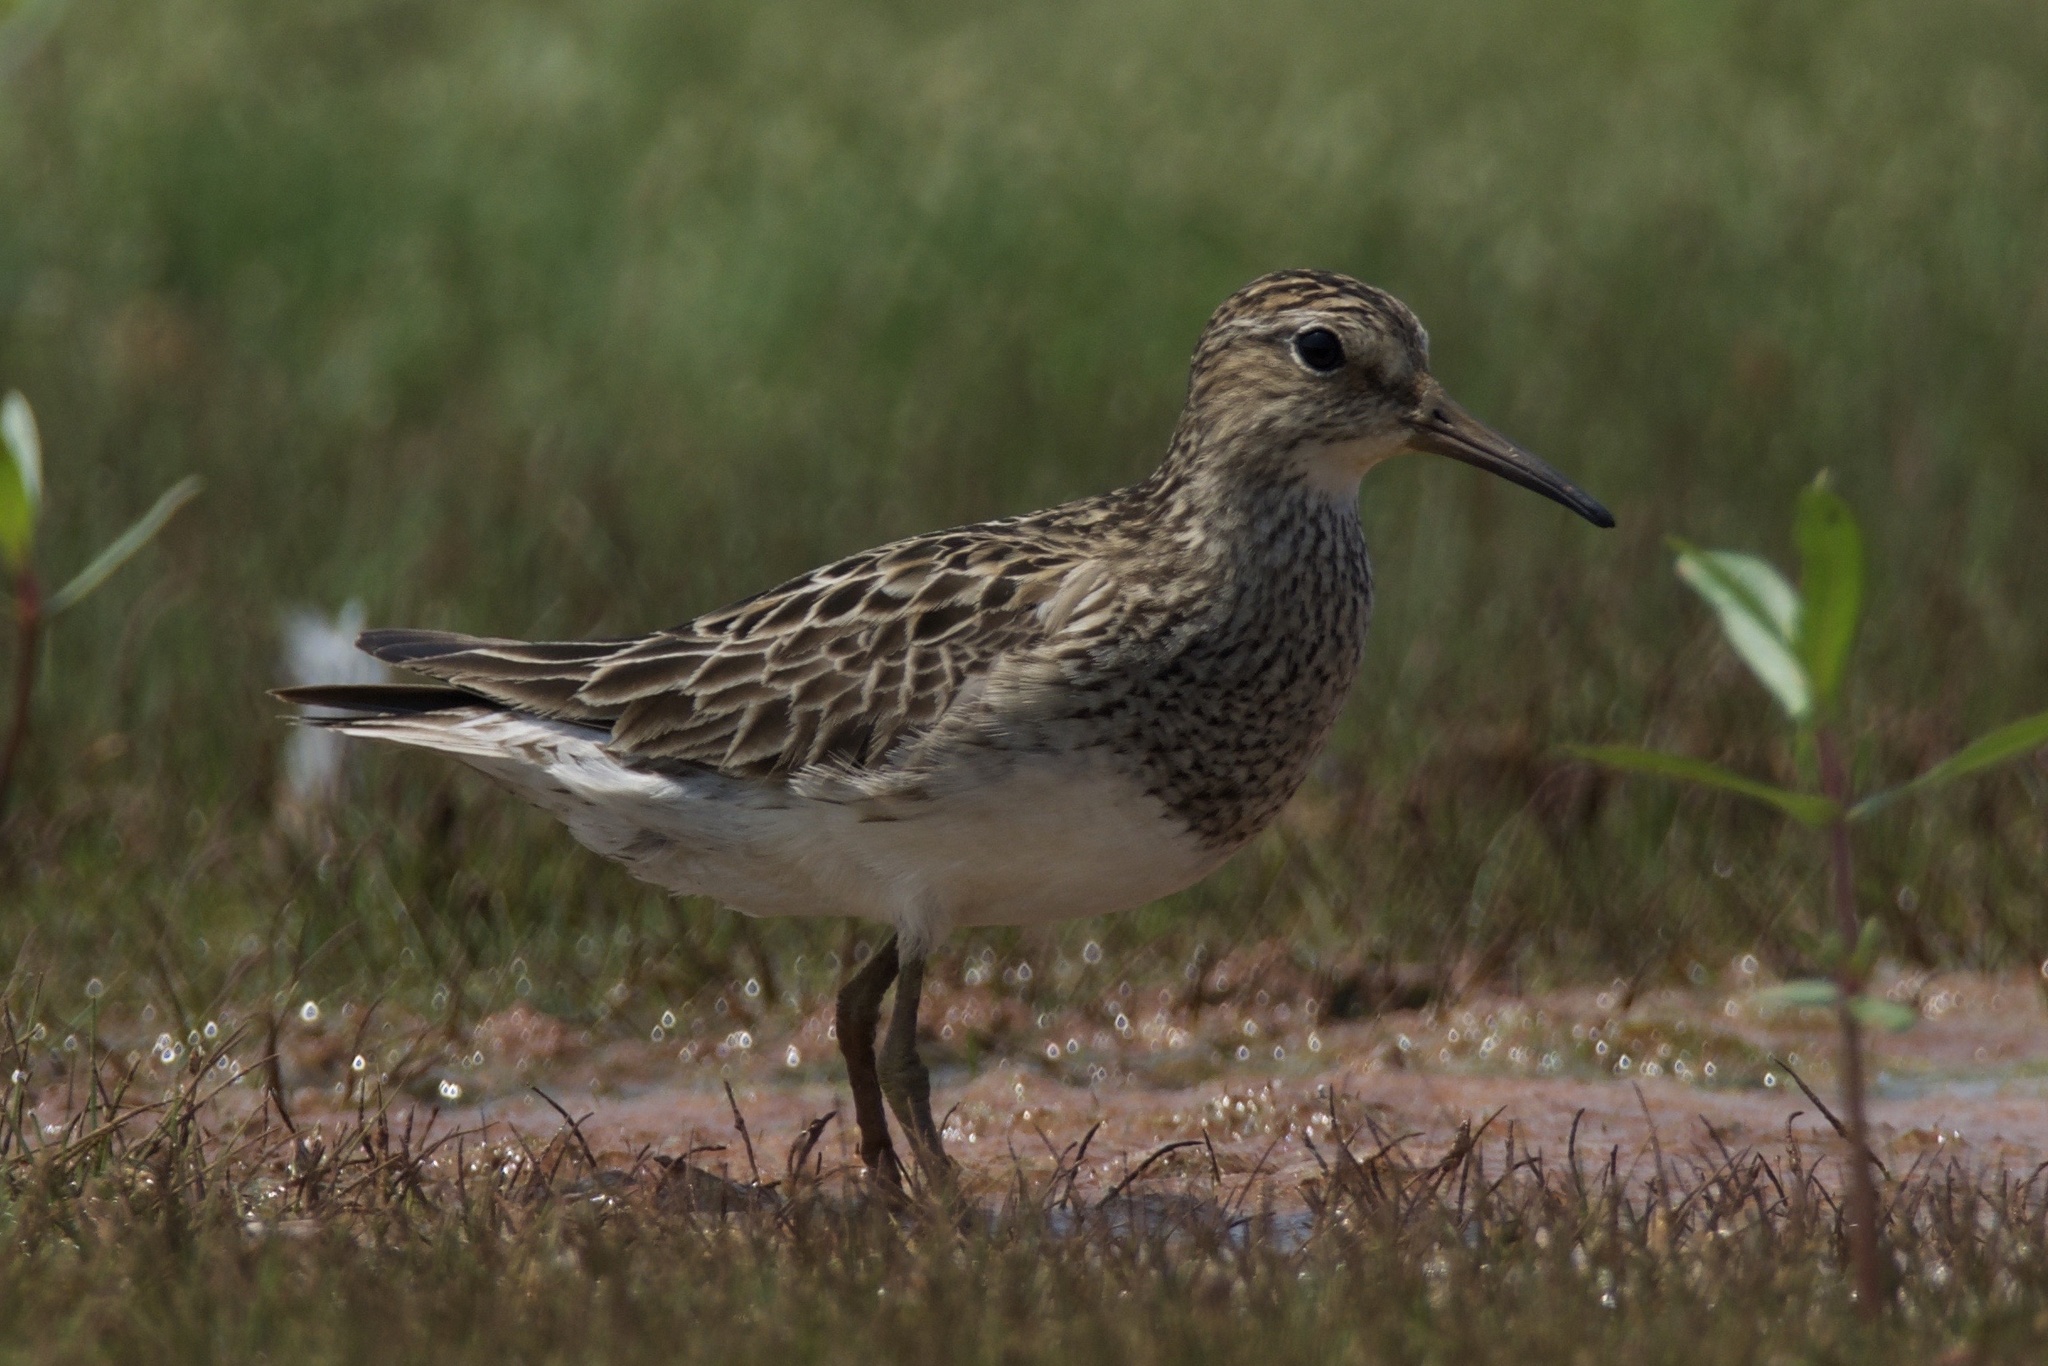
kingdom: Animalia
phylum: Chordata
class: Aves
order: Charadriiformes
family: Scolopacidae
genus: Calidris
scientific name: Calidris melanotos
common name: Pectoral sandpiper
